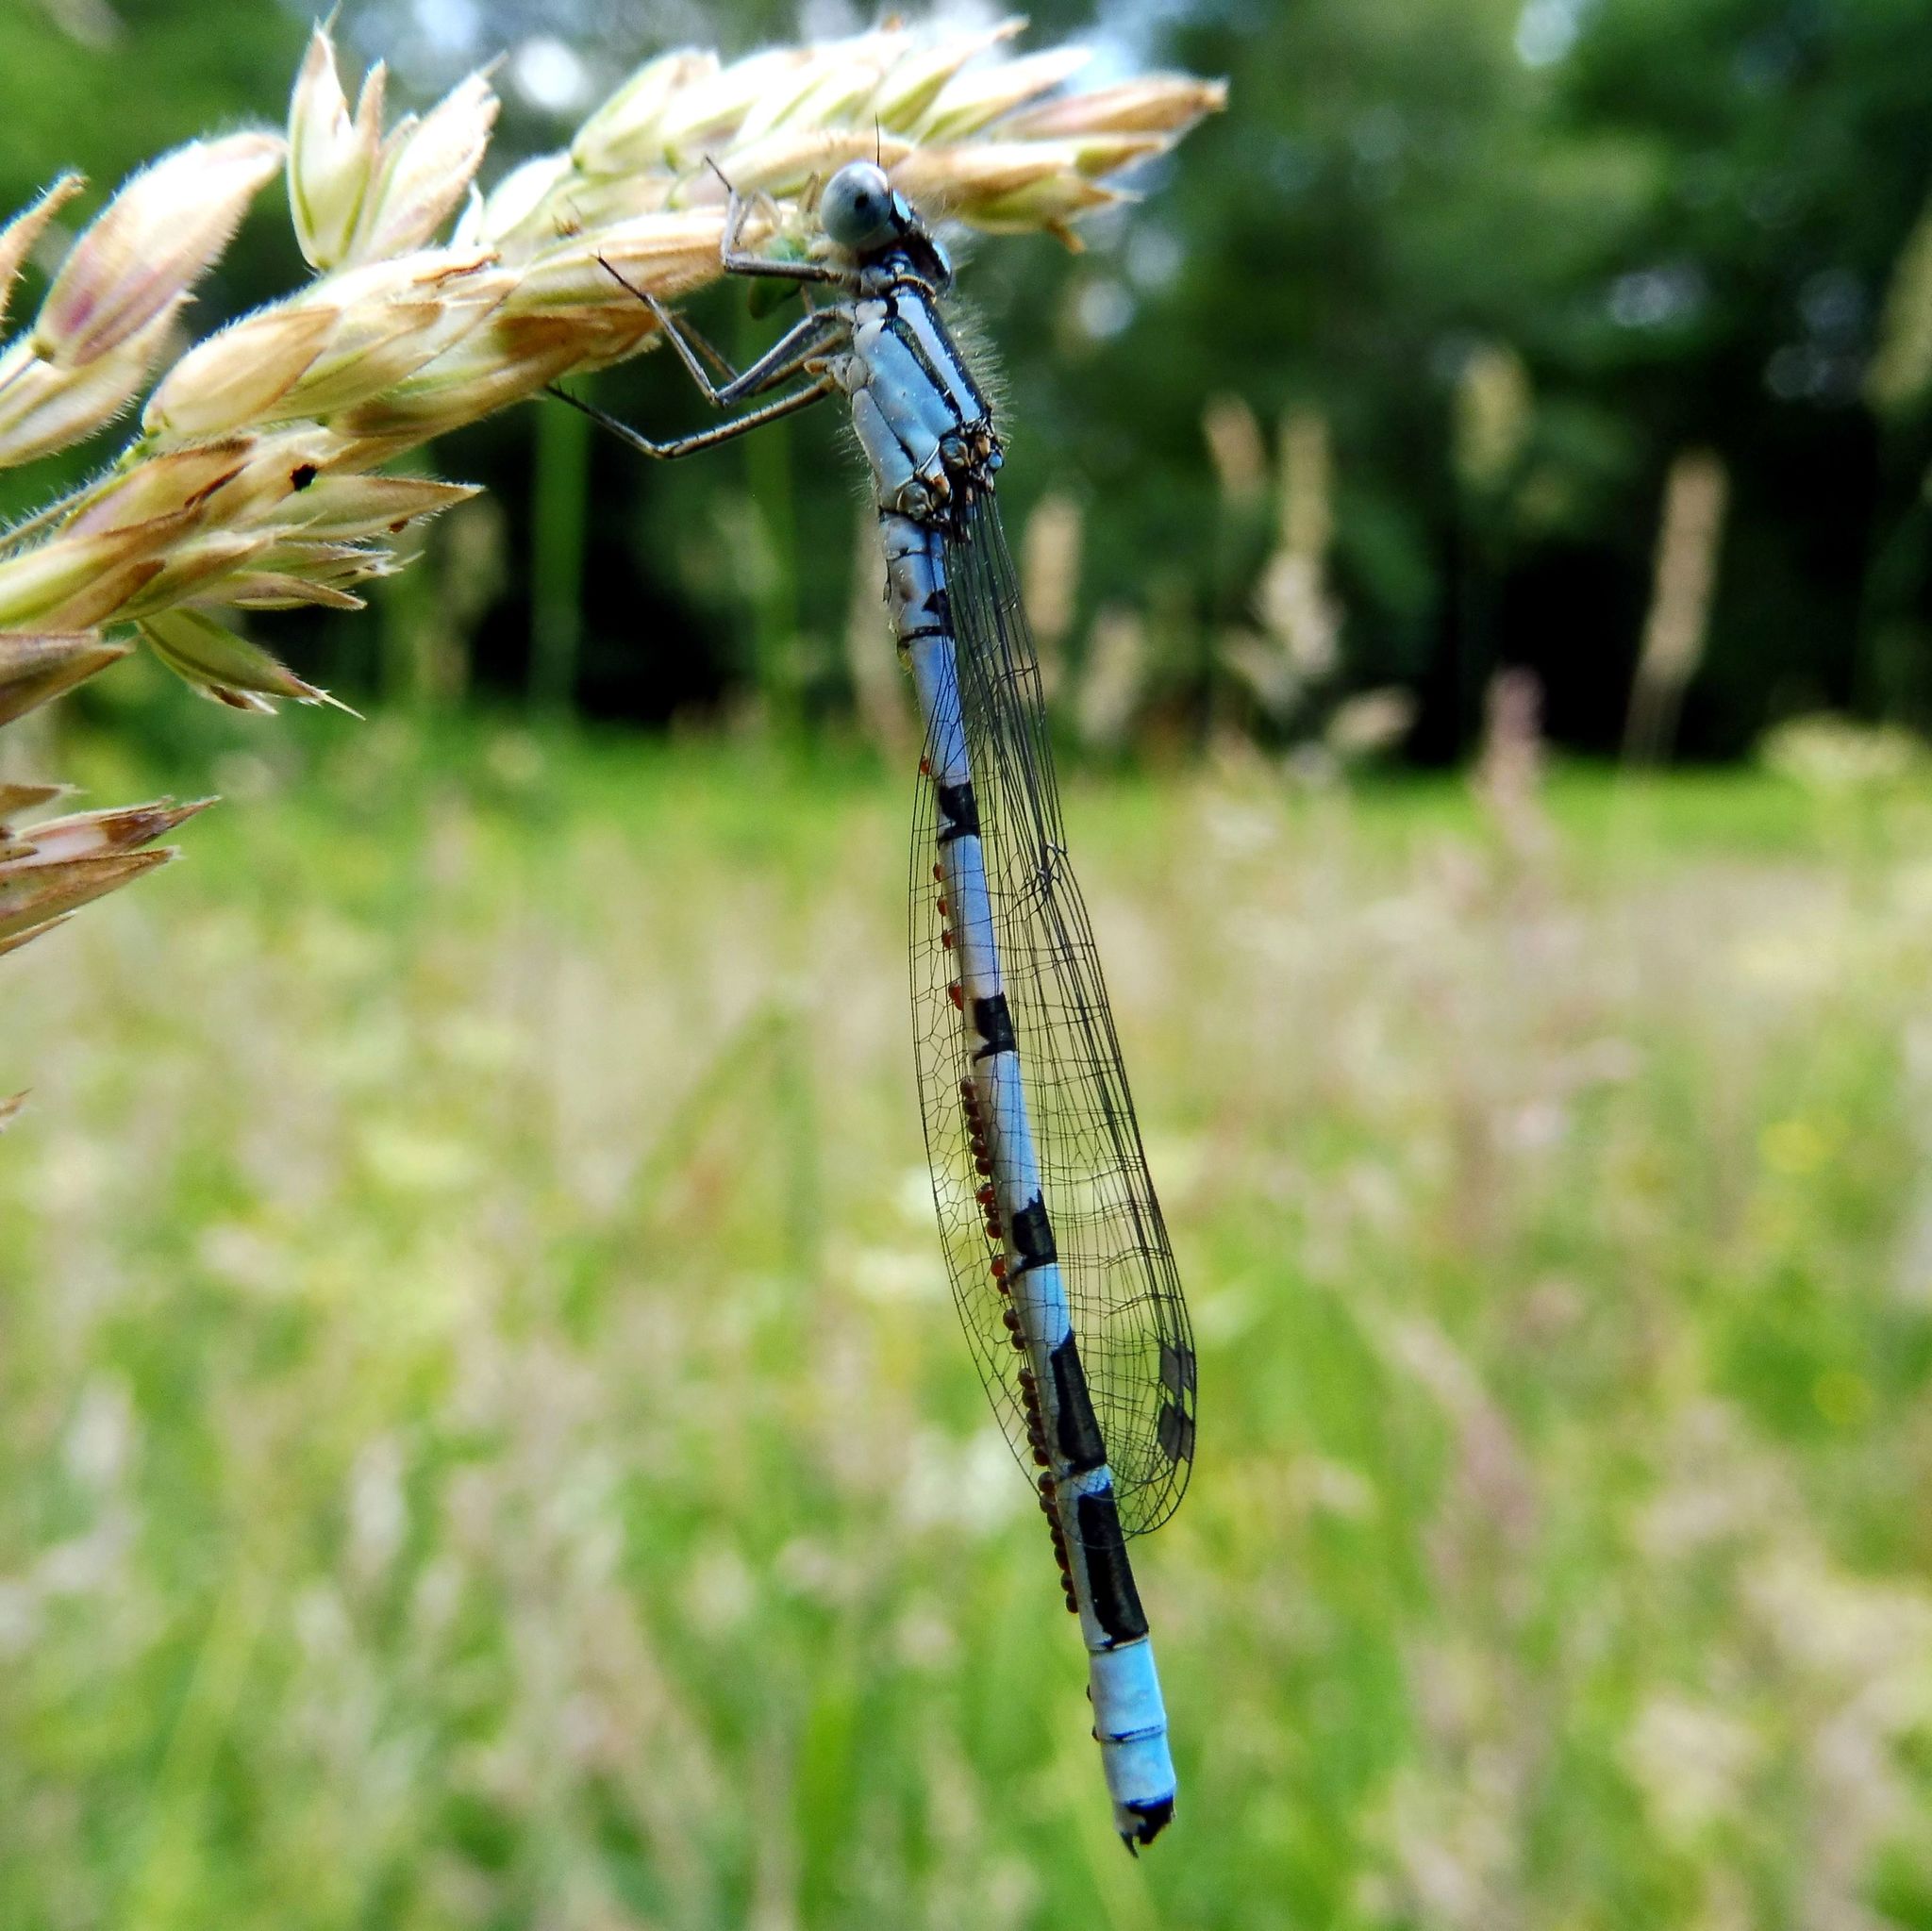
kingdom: Animalia
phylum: Arthropoda
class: Insecta
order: Odonata
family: Coenagrionidae
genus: Enallagma
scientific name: Enallagma cyathigerum
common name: Common blue damselfly
